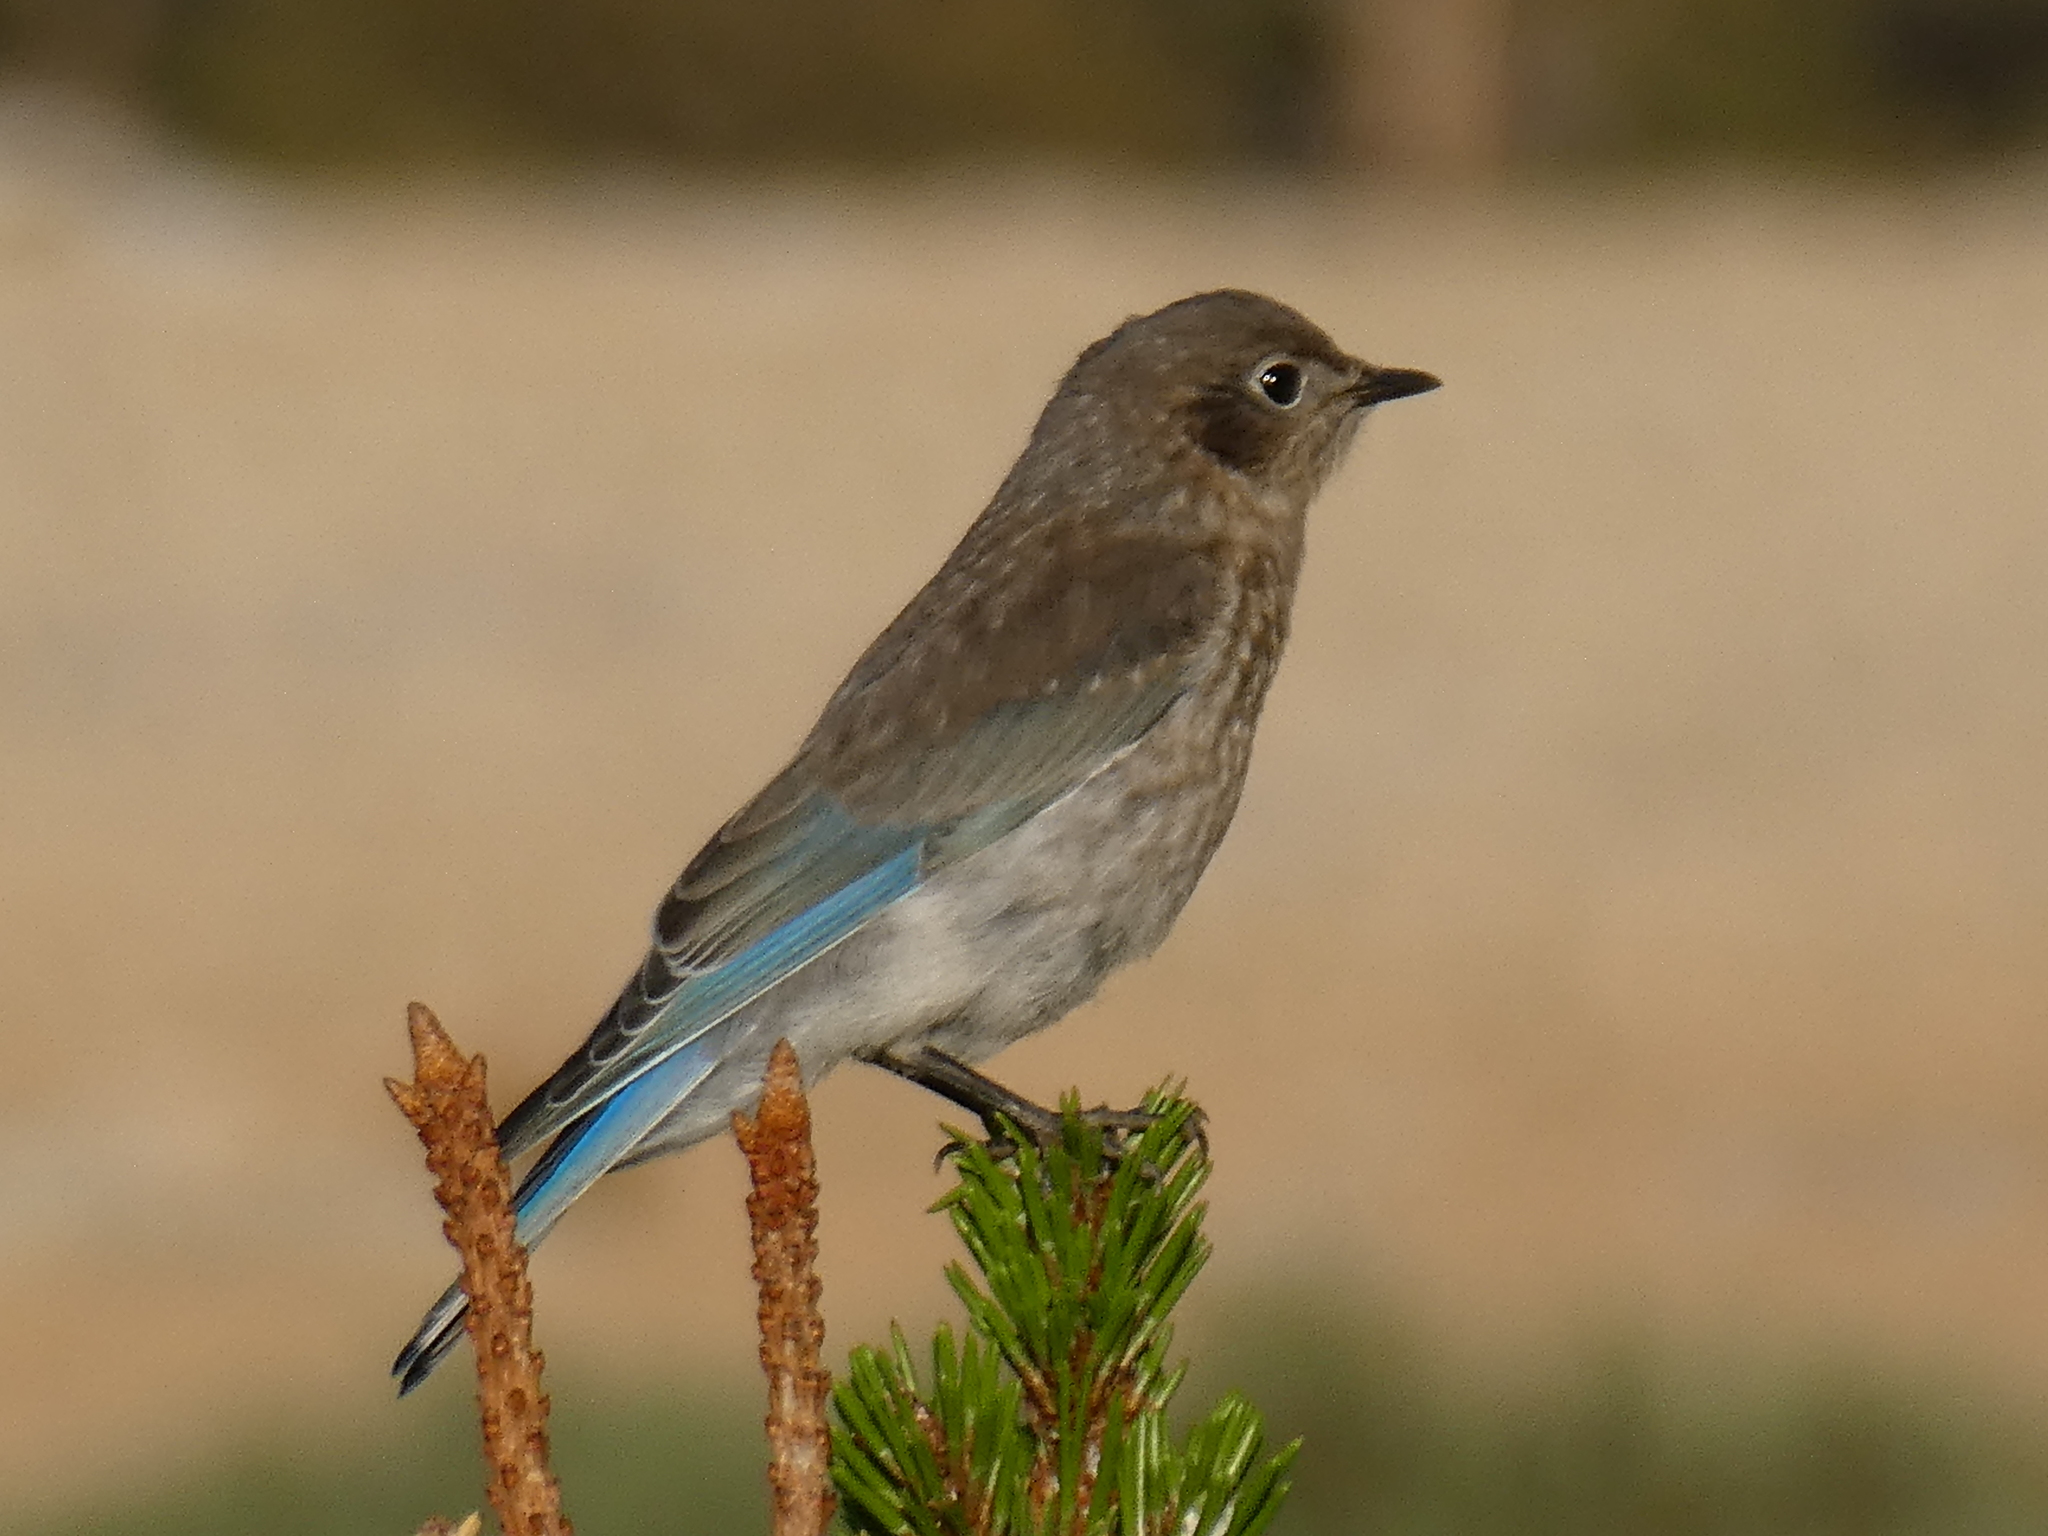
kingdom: Animalia
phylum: Chordata
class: Aves
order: Passeriformes
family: Turdidae
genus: Sialia
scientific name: Sialia currucoides
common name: Mountain bluebird
